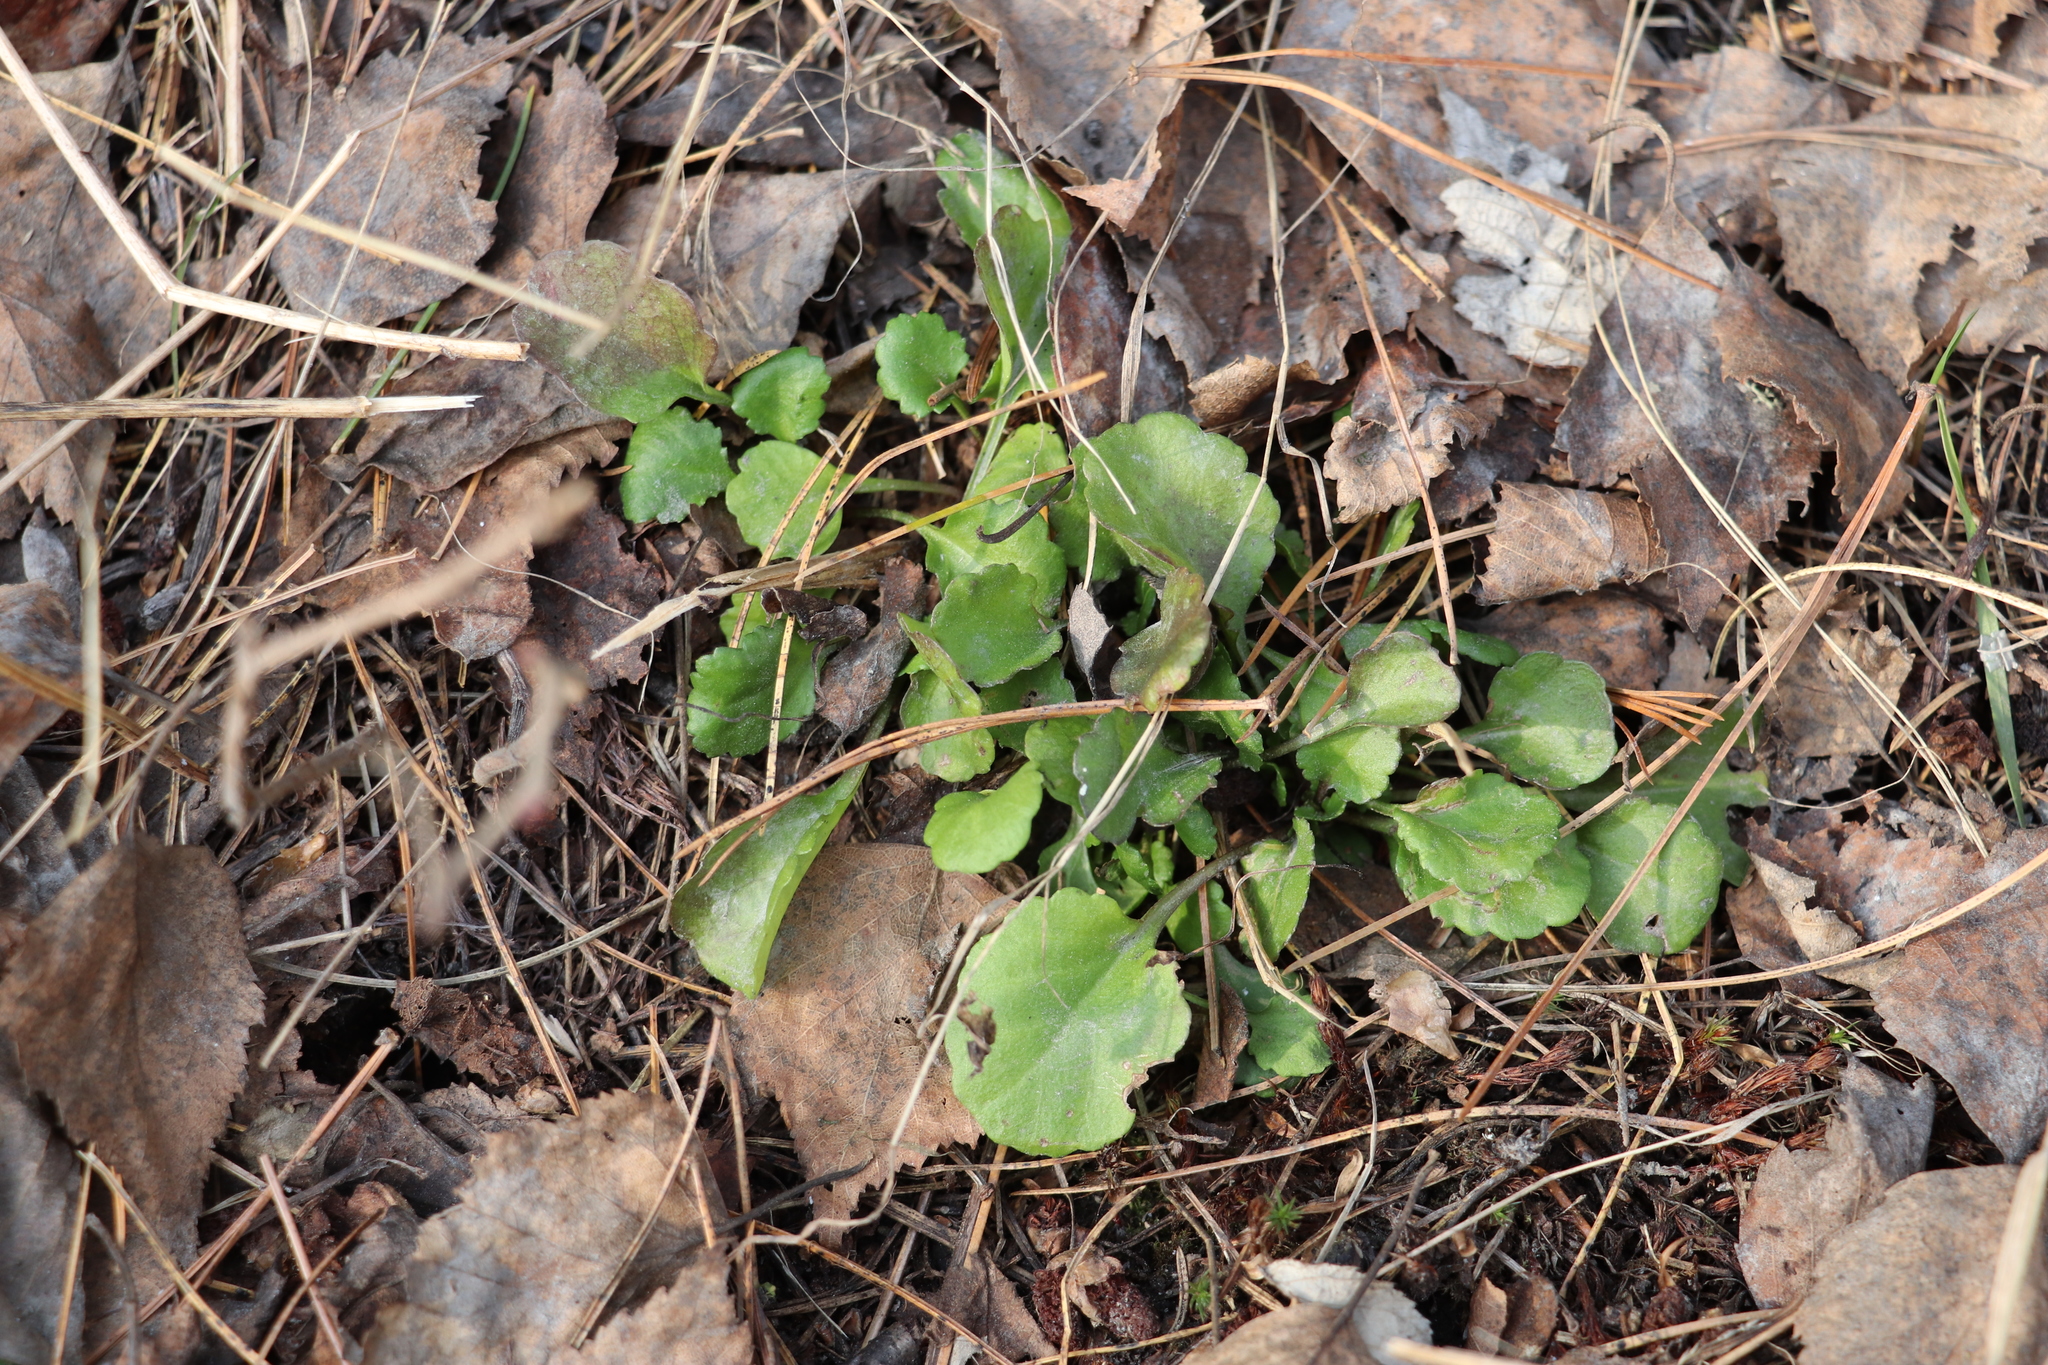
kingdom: Plantae
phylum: Tracheophyta
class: Magnoliopsida
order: Asterales
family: Asteraceae
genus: Leucanthemum
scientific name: Leucanthemum vulgare
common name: Oxeye daisy
